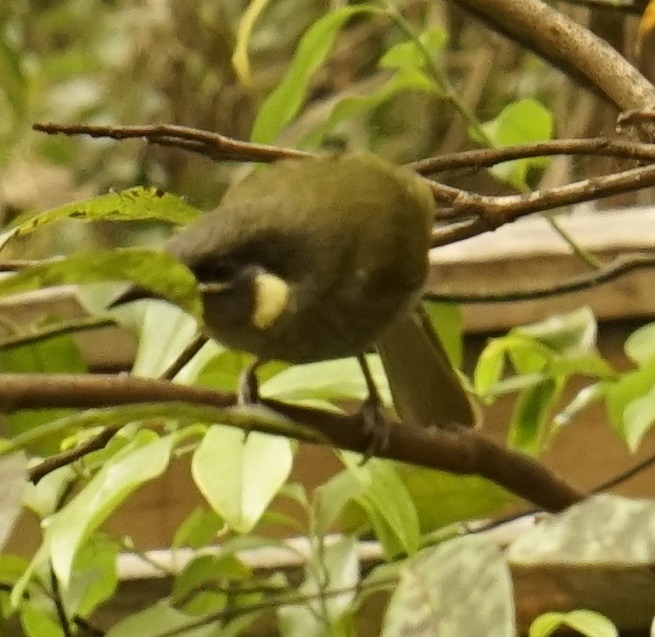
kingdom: Animalia
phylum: Chordata
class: Aves
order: Passeriformes
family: Meliphagidae
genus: Meliphaga
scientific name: Meliphaga lewinii
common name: Lewin's honeyeater
